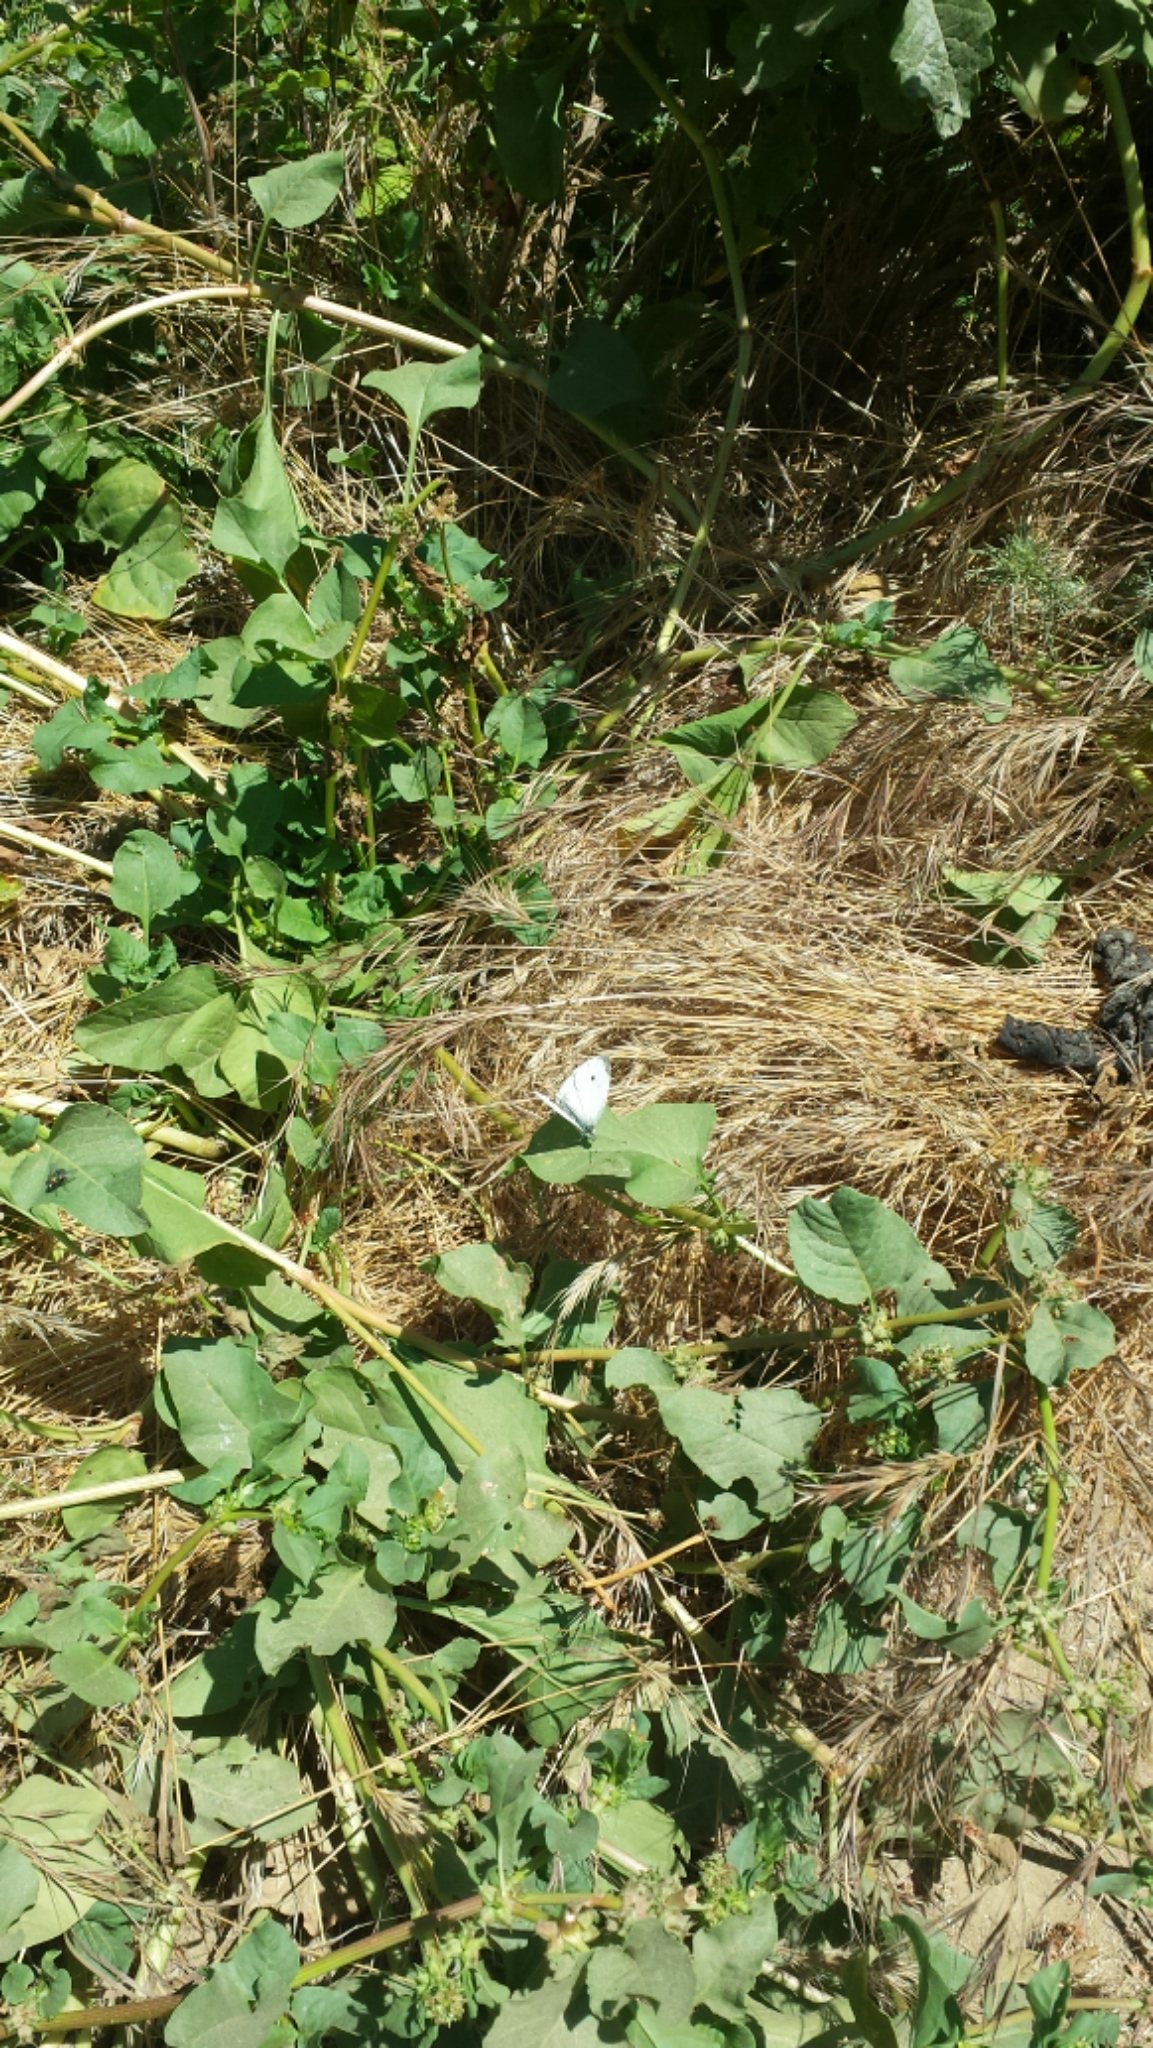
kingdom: Animalia
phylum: Arthropoda
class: Insecta
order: Lepidoptera
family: Pieridae
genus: Pieris
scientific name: Pieris rapae
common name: Small white
